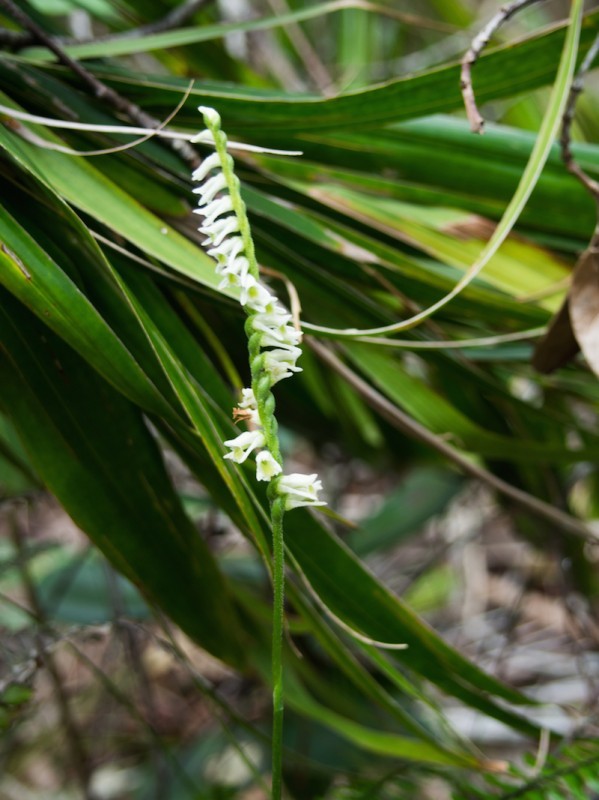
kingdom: Plantae
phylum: Tracheophyta
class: Liliopsida
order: Asparagales
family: Orchidaceae
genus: Spiranthes
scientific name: Spiranthes torta
